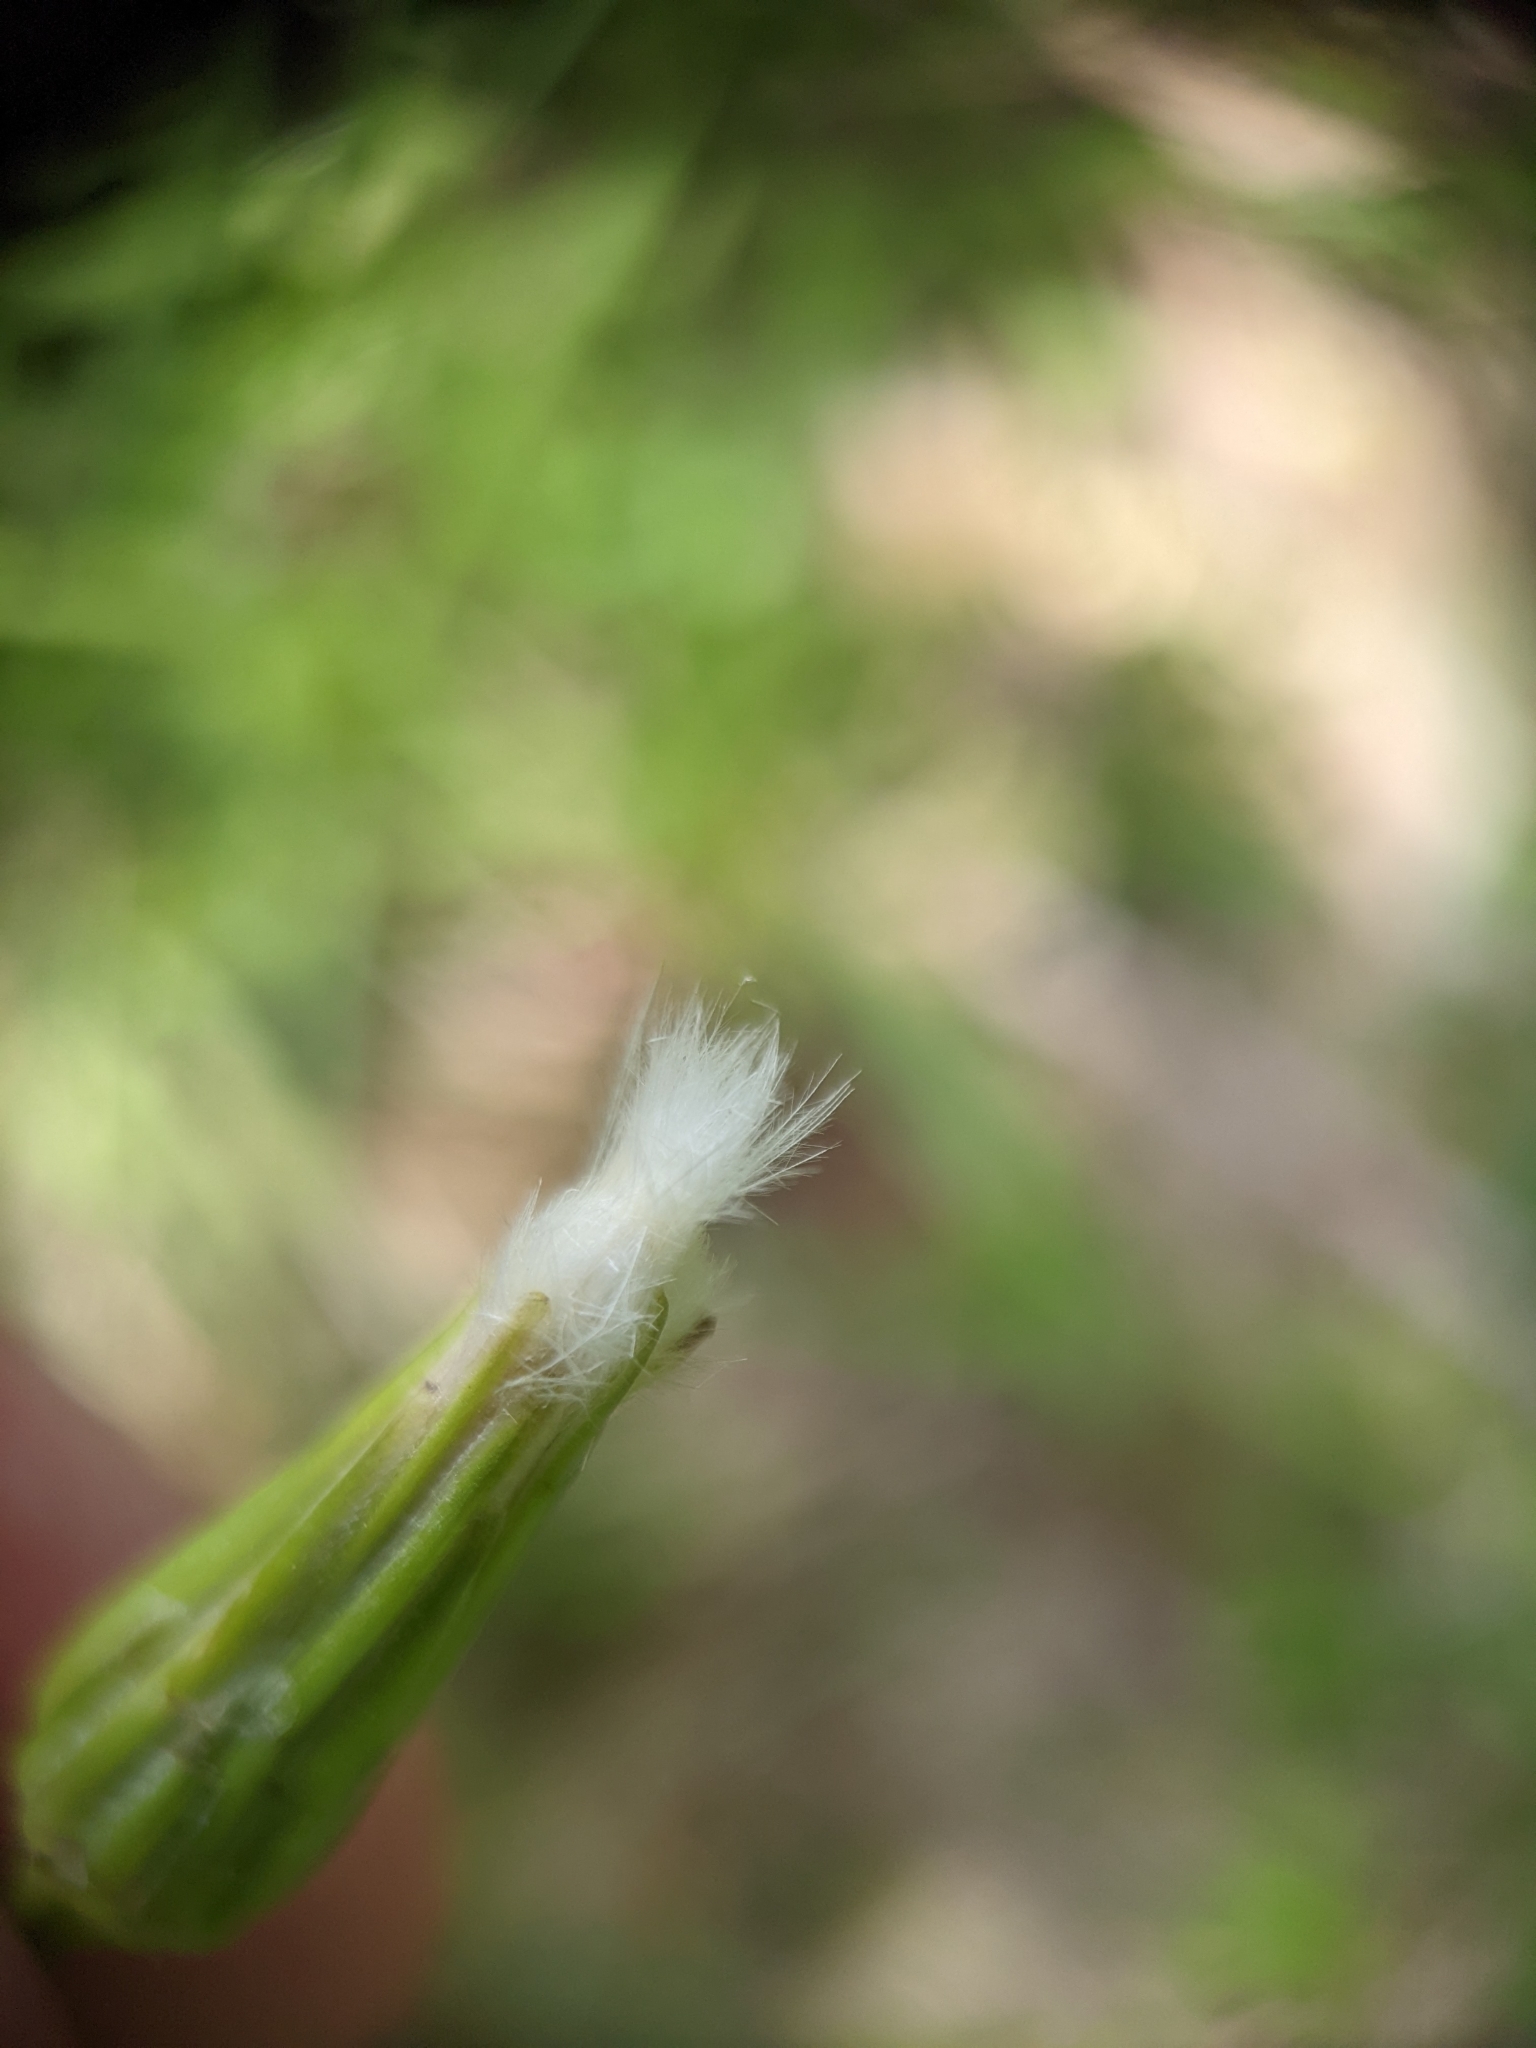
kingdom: Plantae
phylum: Tracheophyta
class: Magnoliopsida
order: Asterales
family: Asteraceae
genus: Hypochaeris
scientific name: Hypochaeris albiflora
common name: White flatweed
